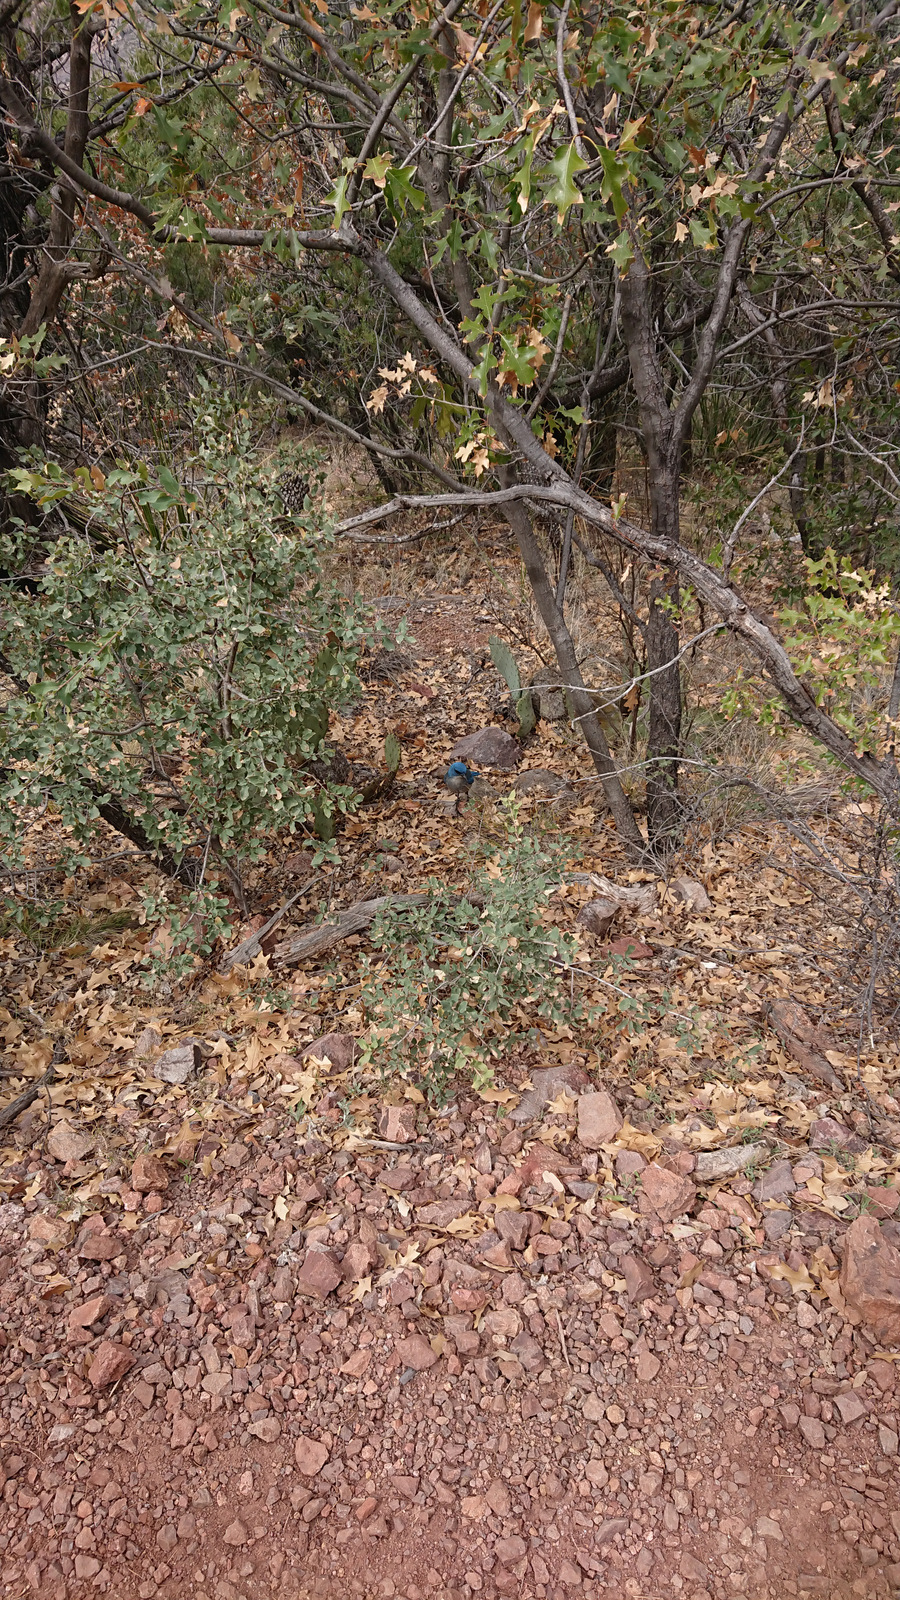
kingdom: Animalia
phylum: Chordata
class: Aves
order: Passeriformes
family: Corvidae
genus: Aphelocoma
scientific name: Aphelocoma wollweberi
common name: Mexican jay
